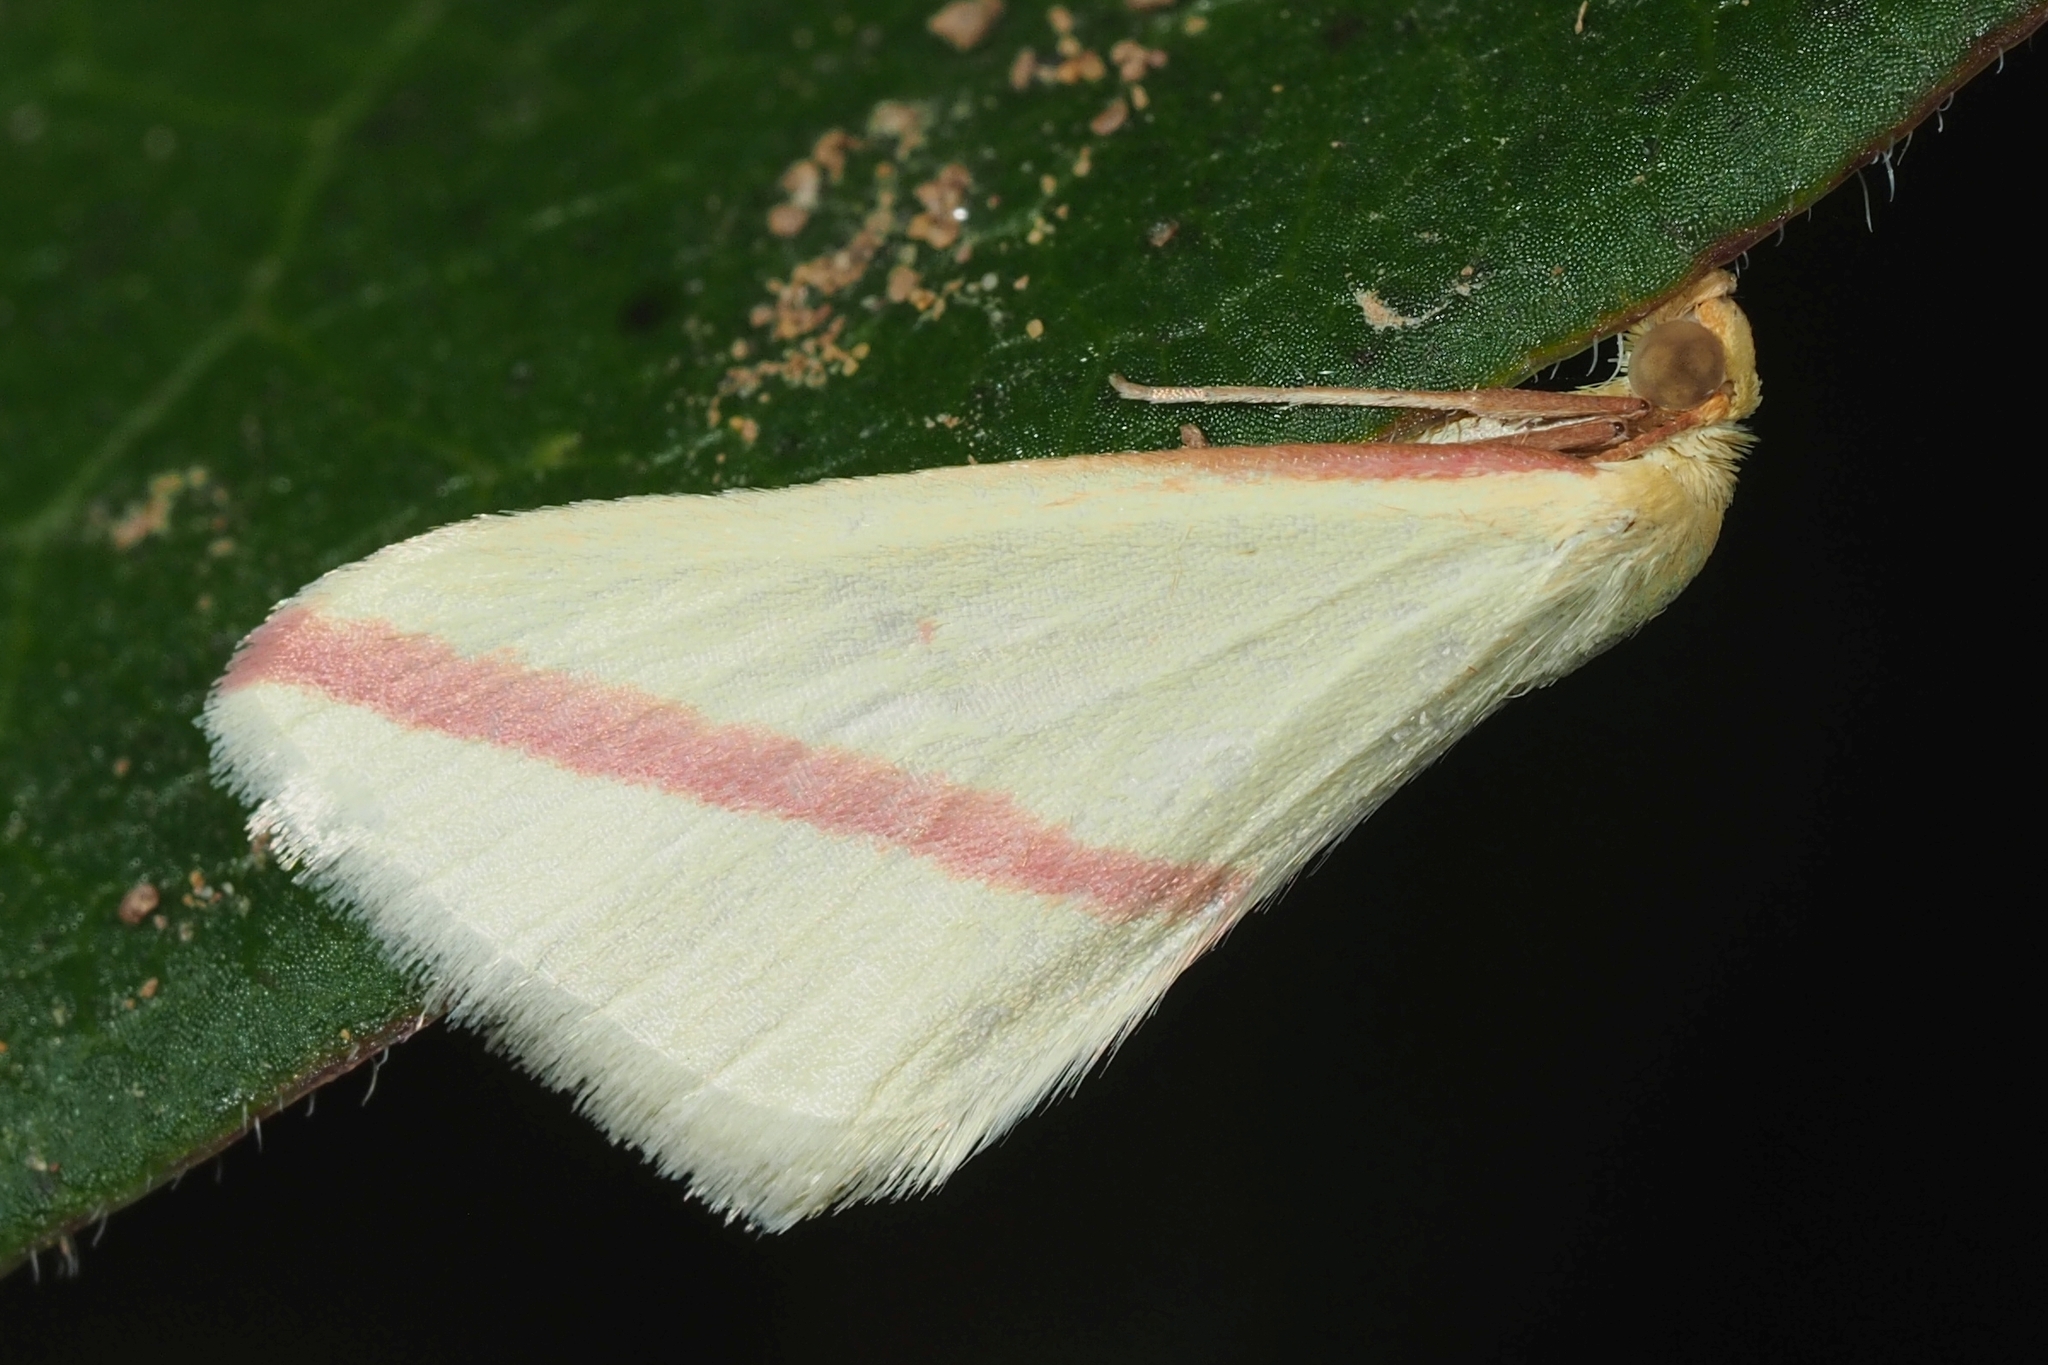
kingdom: Animalia
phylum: Arthropoda
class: Insecta
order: Lepidoptera
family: Geometridae
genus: Rhodometra
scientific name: Rhodometra sacraria
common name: Vestal
